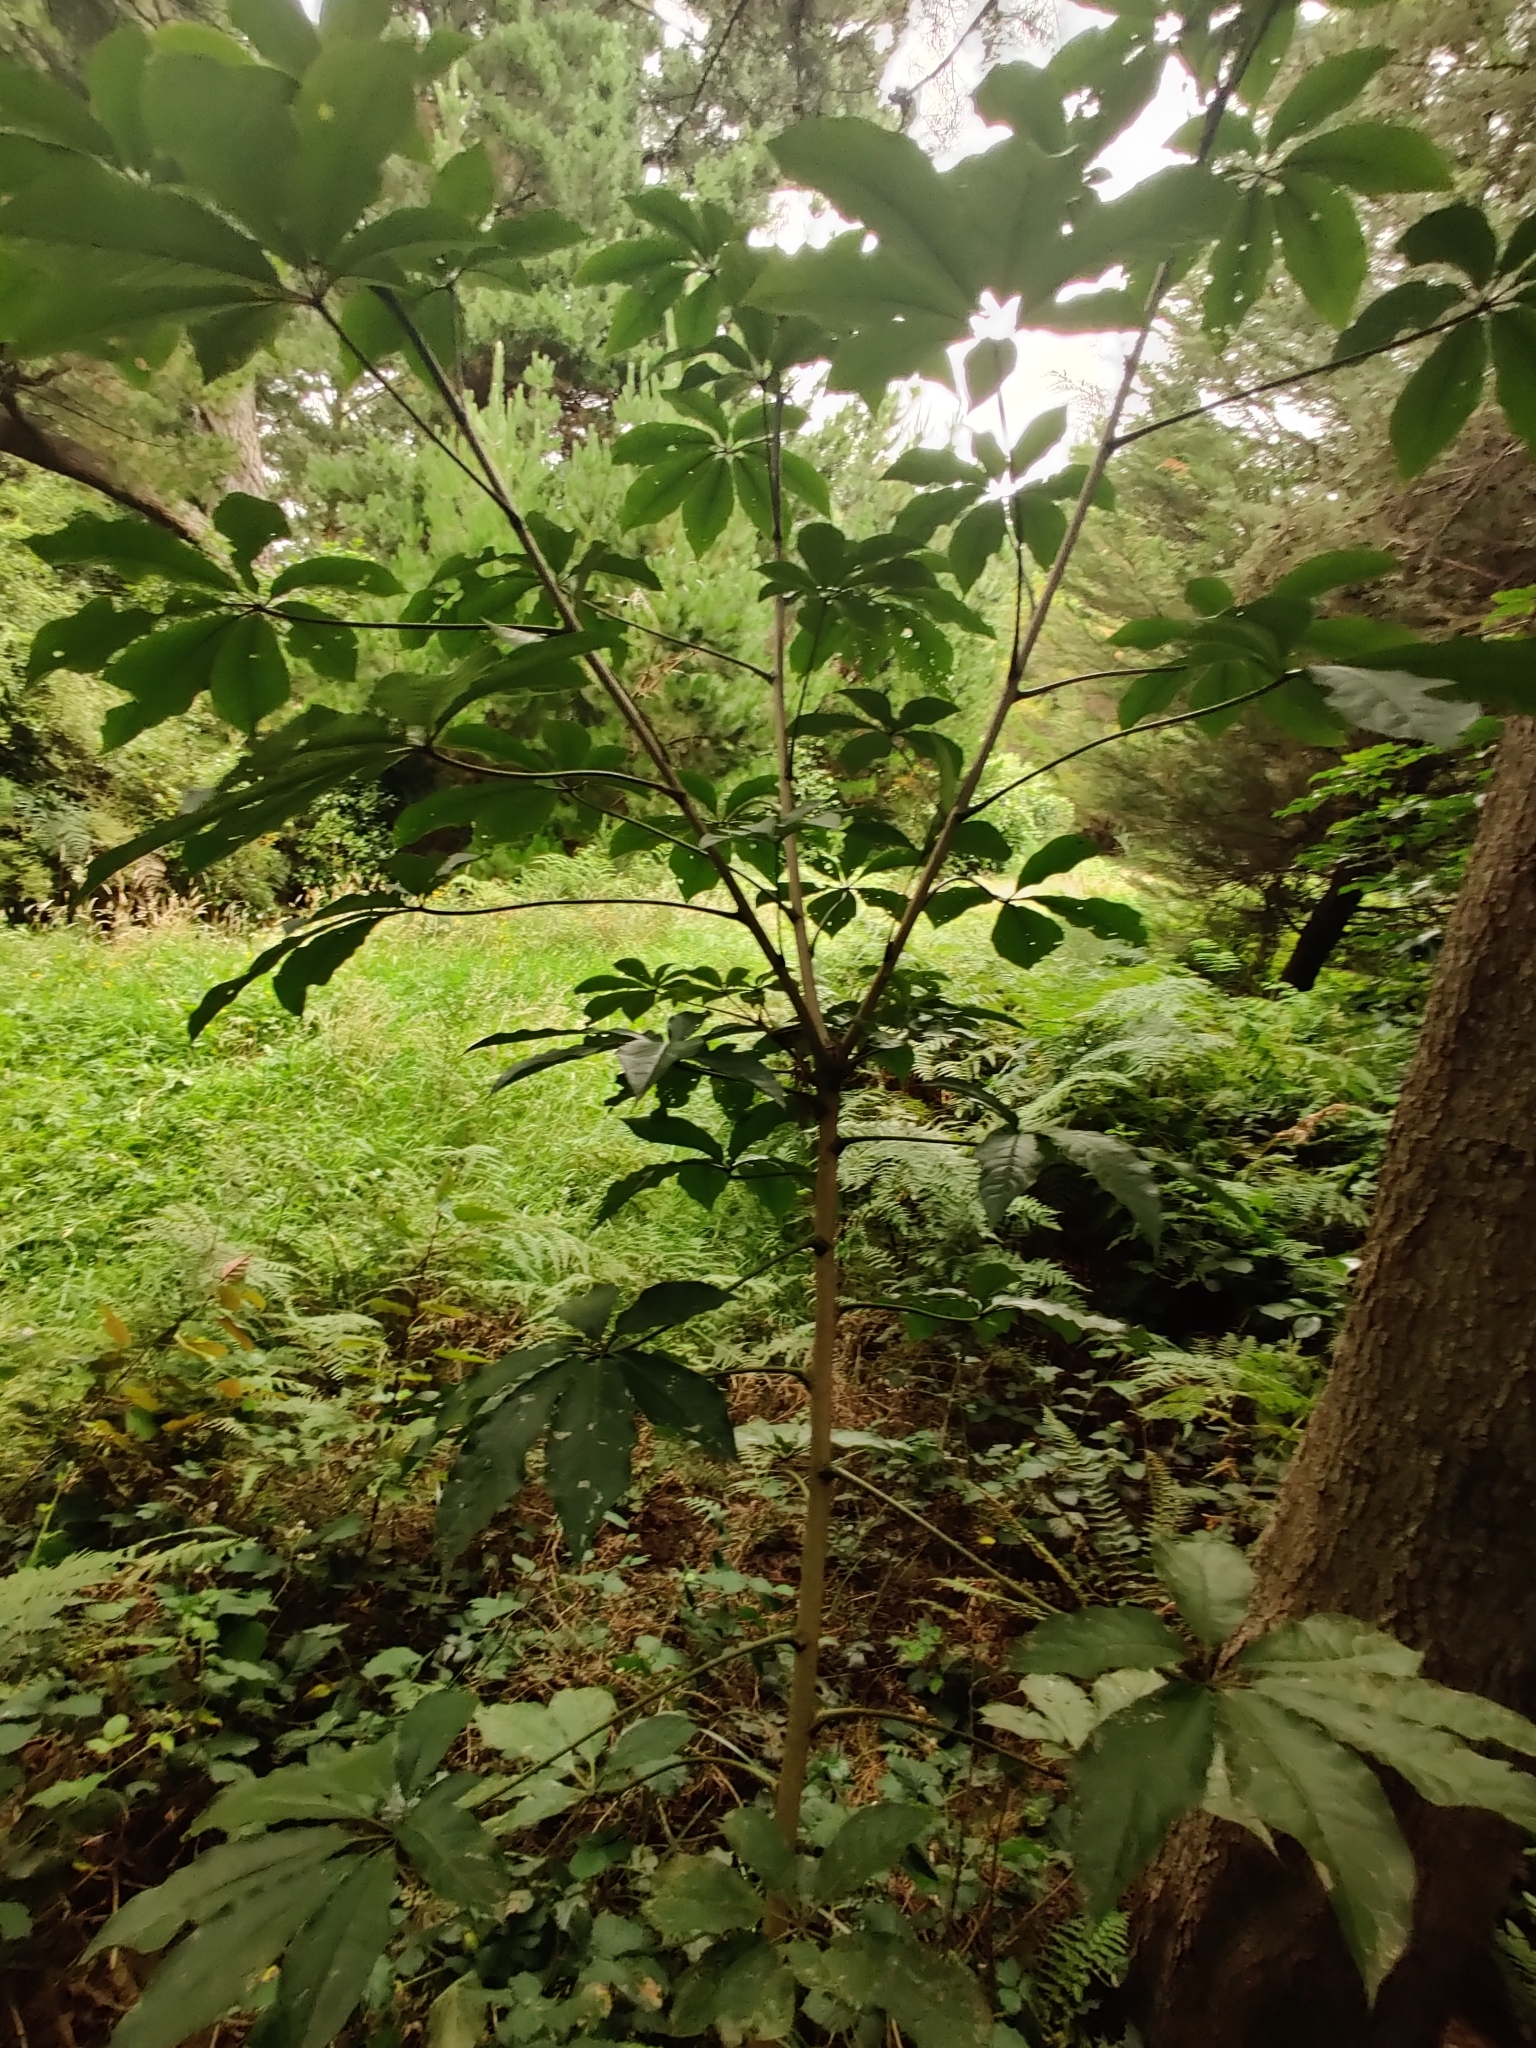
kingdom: Plantae
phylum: Tracheophyta
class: Magnoliopsida
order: Apiales
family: Araliaceae
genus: Schefflera
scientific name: Schefflera digitata
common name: Pate
